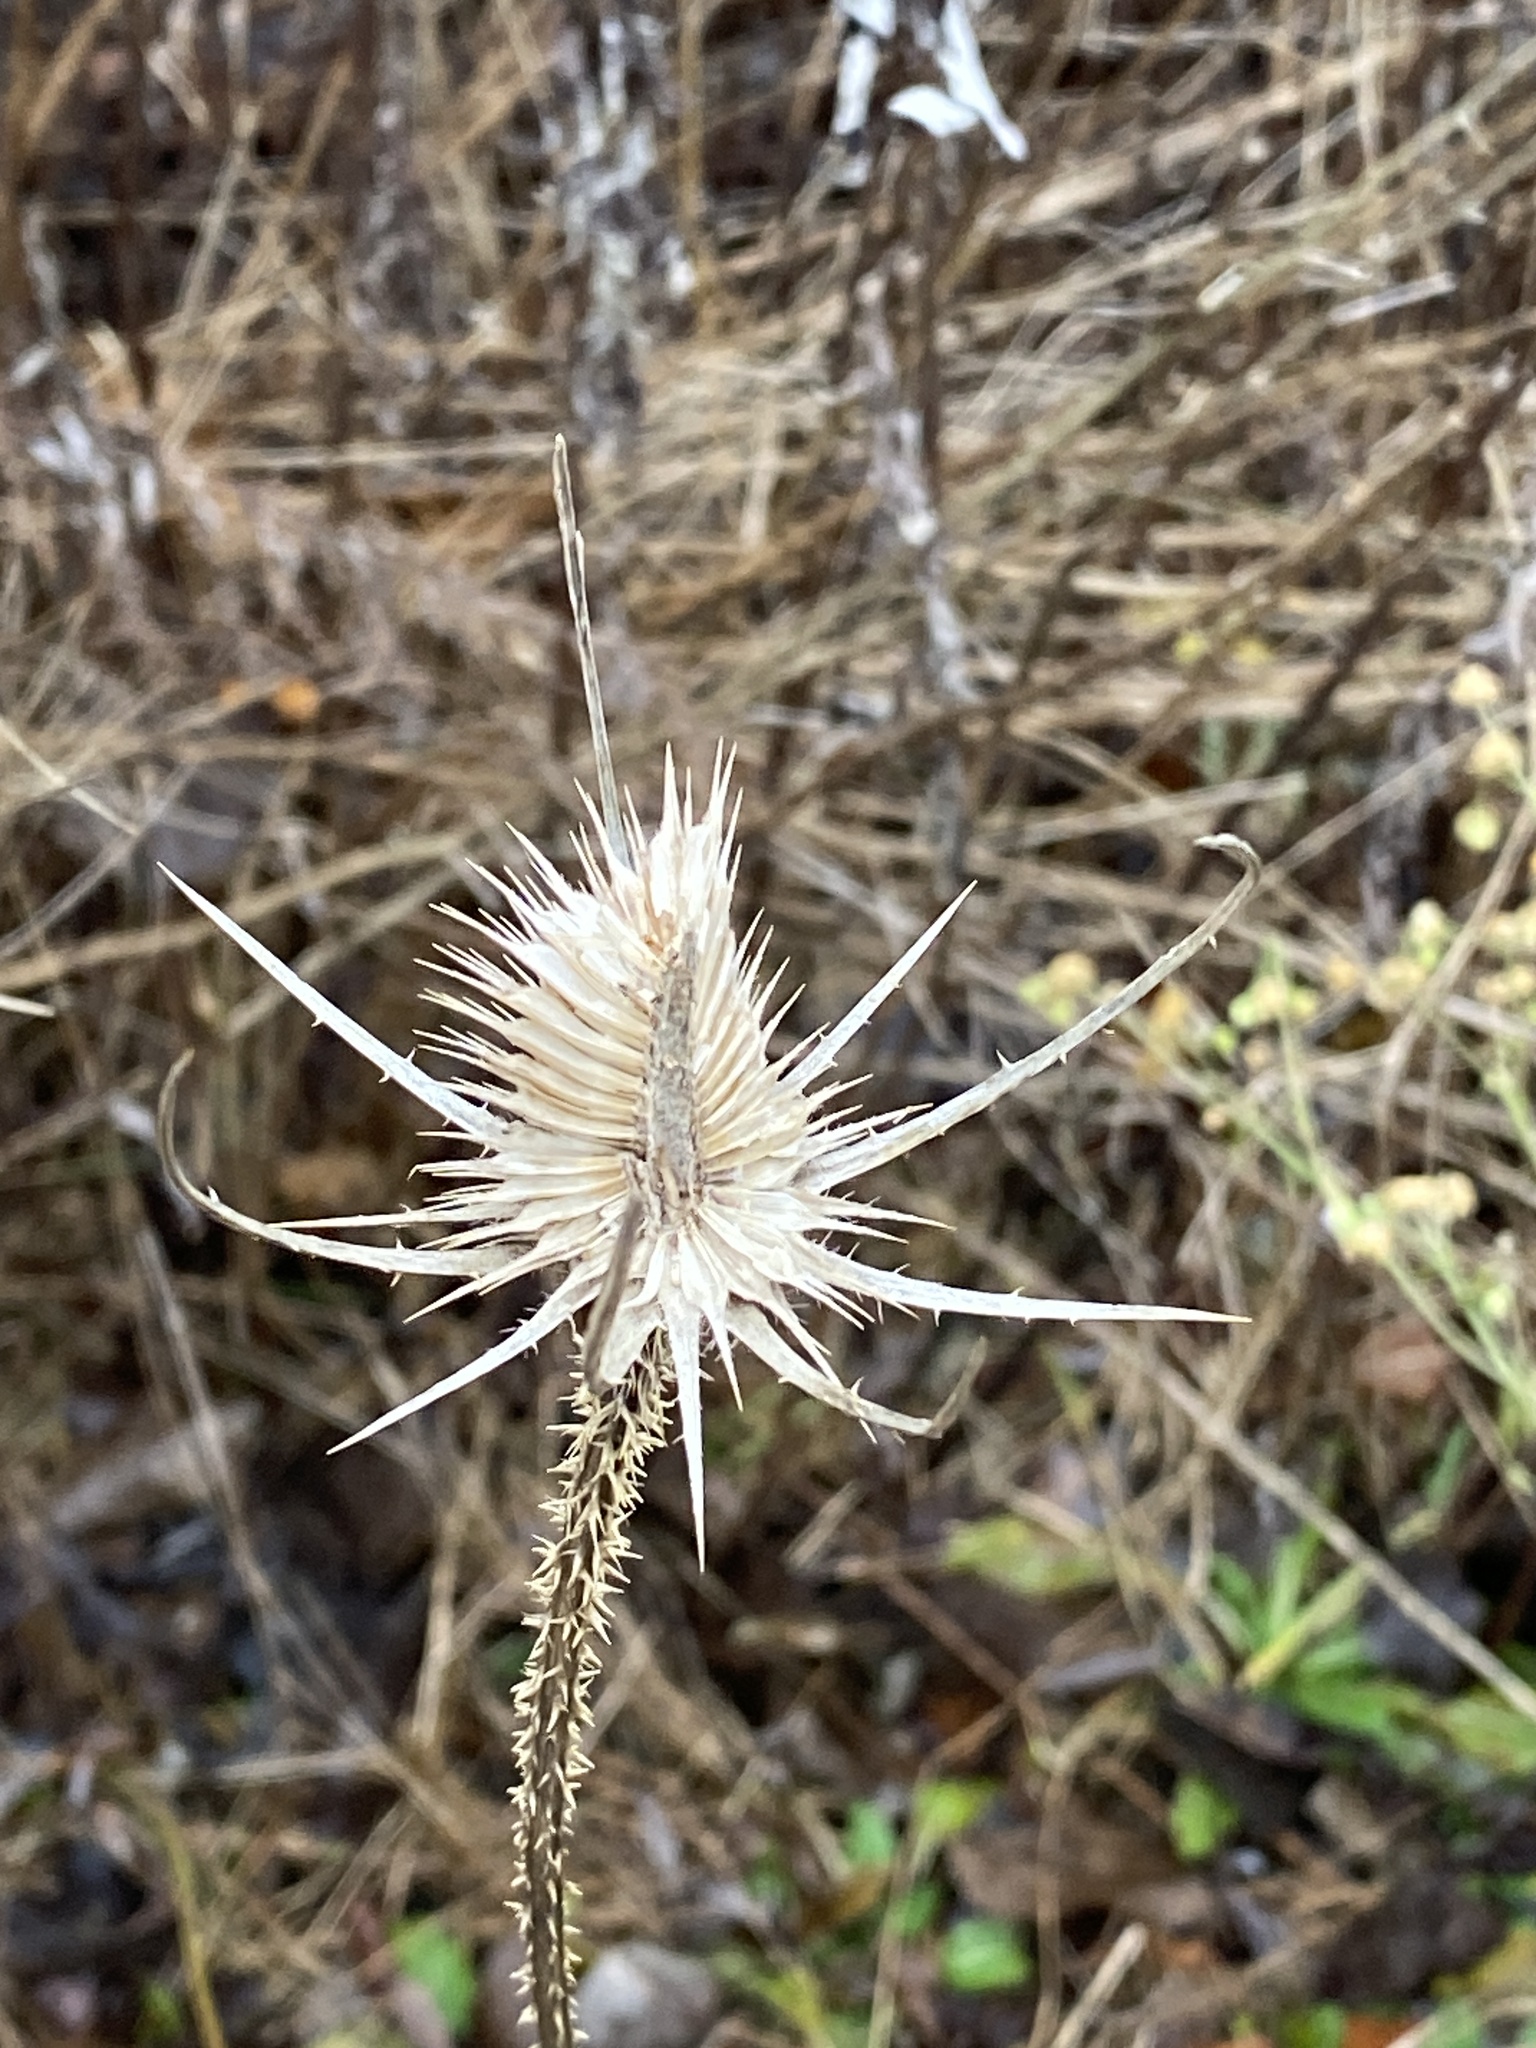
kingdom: Plantae
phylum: Tracheophyta
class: Magnoliopsida
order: Dipsacales
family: Caprifoliaceae
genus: Dipsacus
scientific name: Dipsacus fullonum
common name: Teasel
